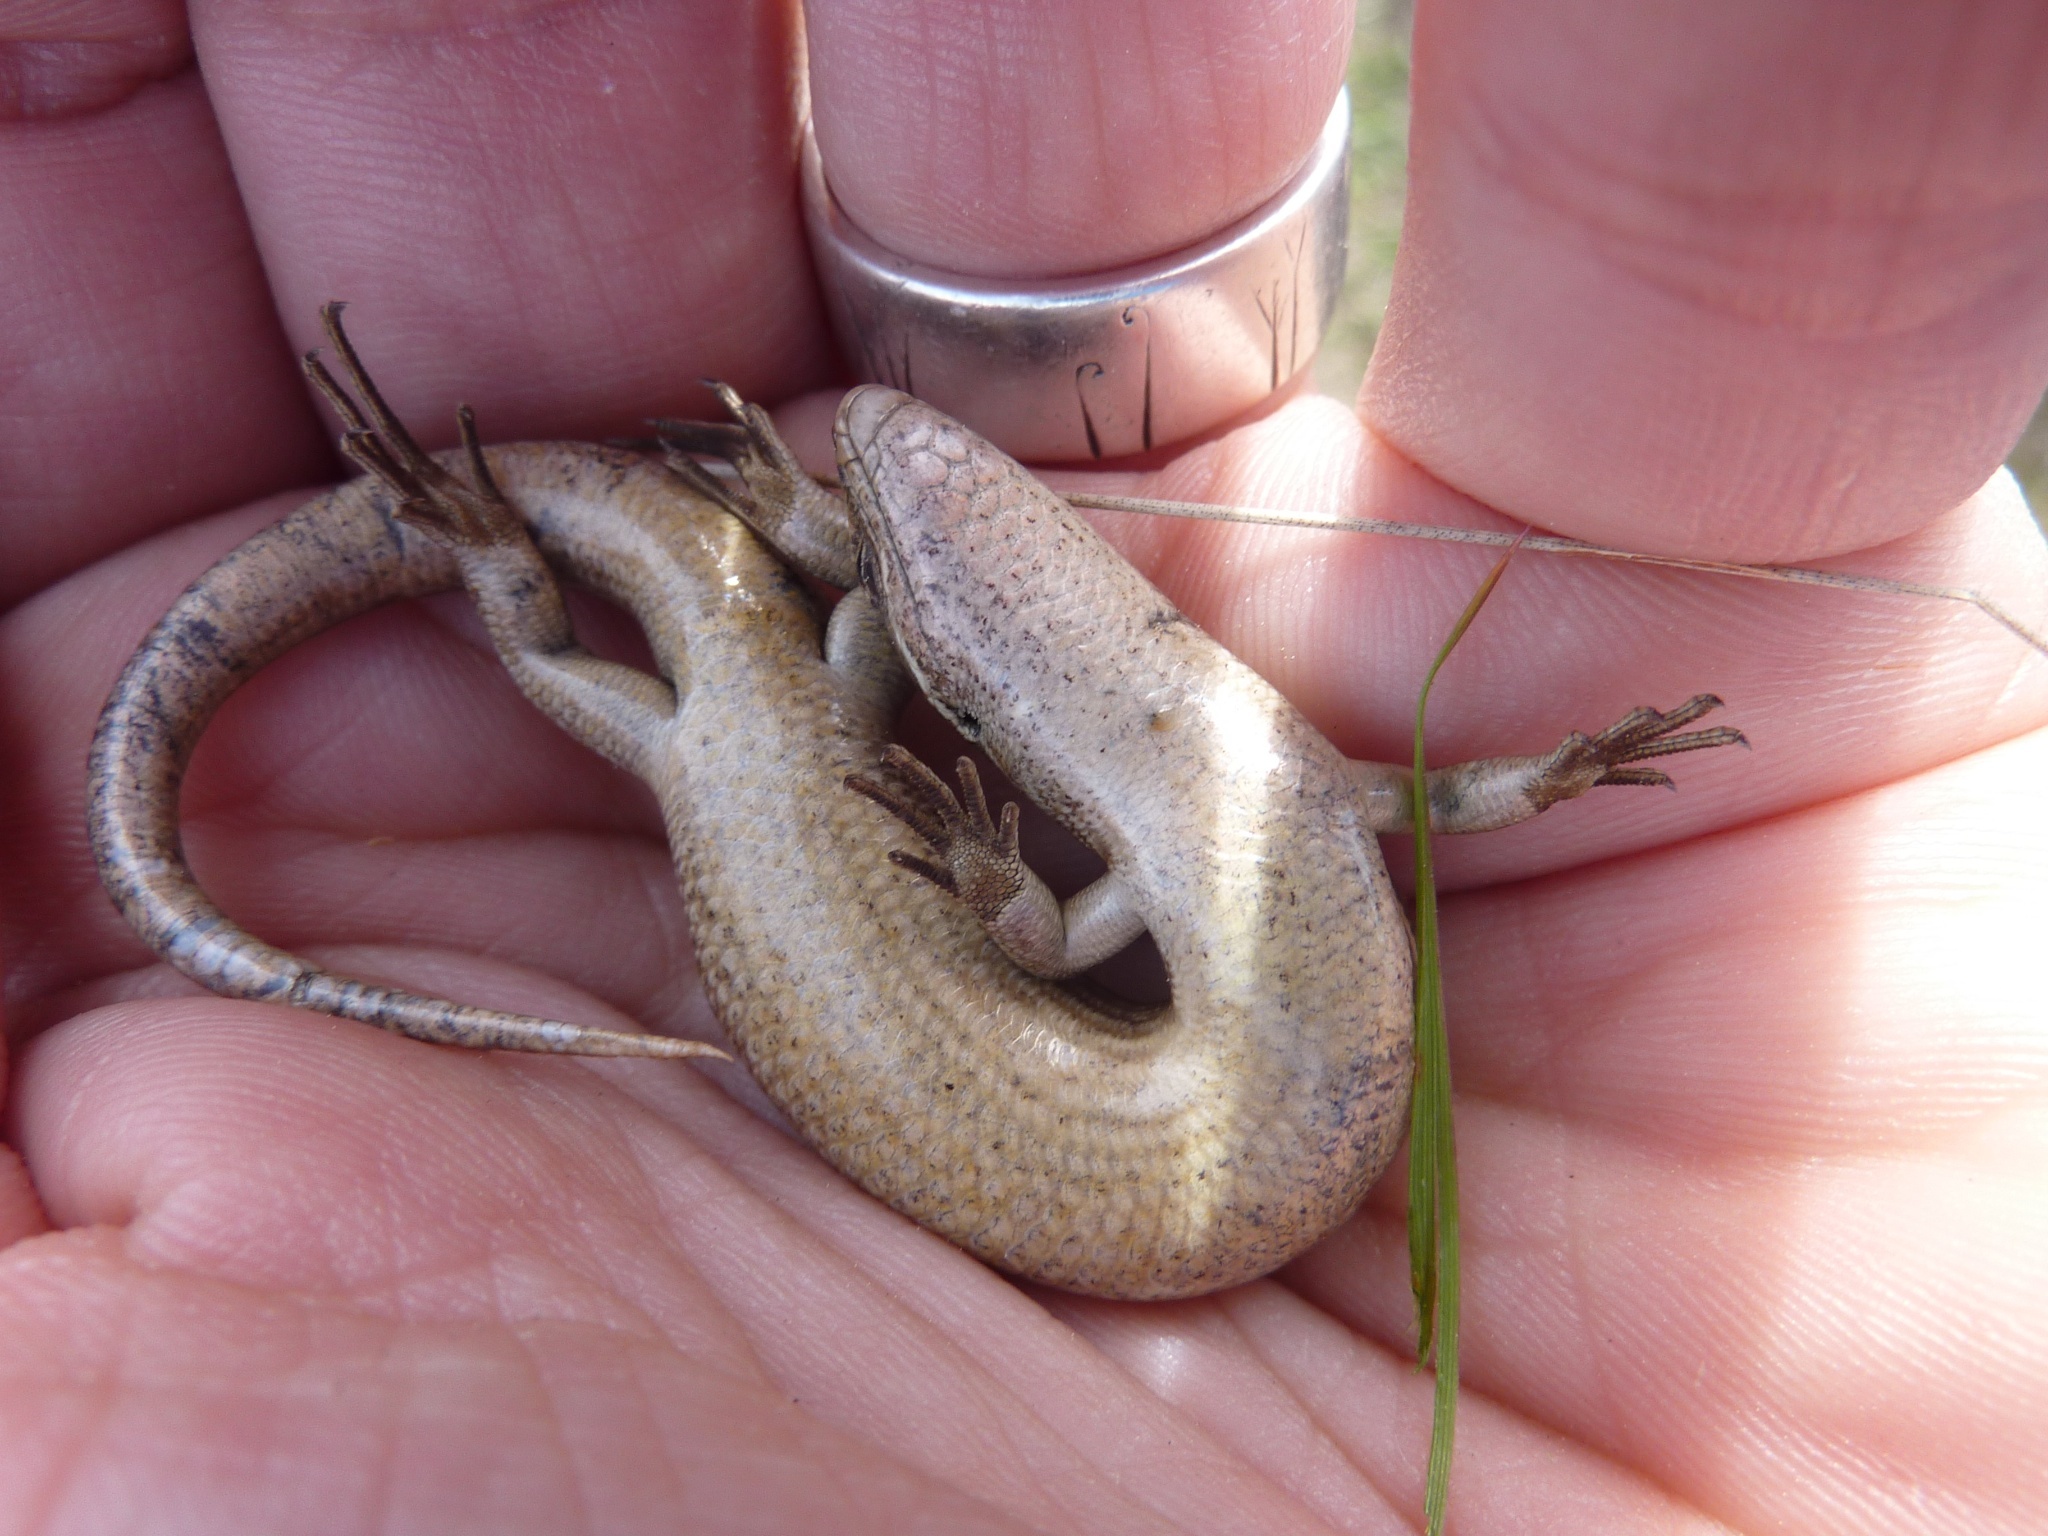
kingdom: Animalia
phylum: Chordata
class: Squamata
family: Scincidae
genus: Oligosoma
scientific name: Oligosoma maccanni
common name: Mccann’s skink
